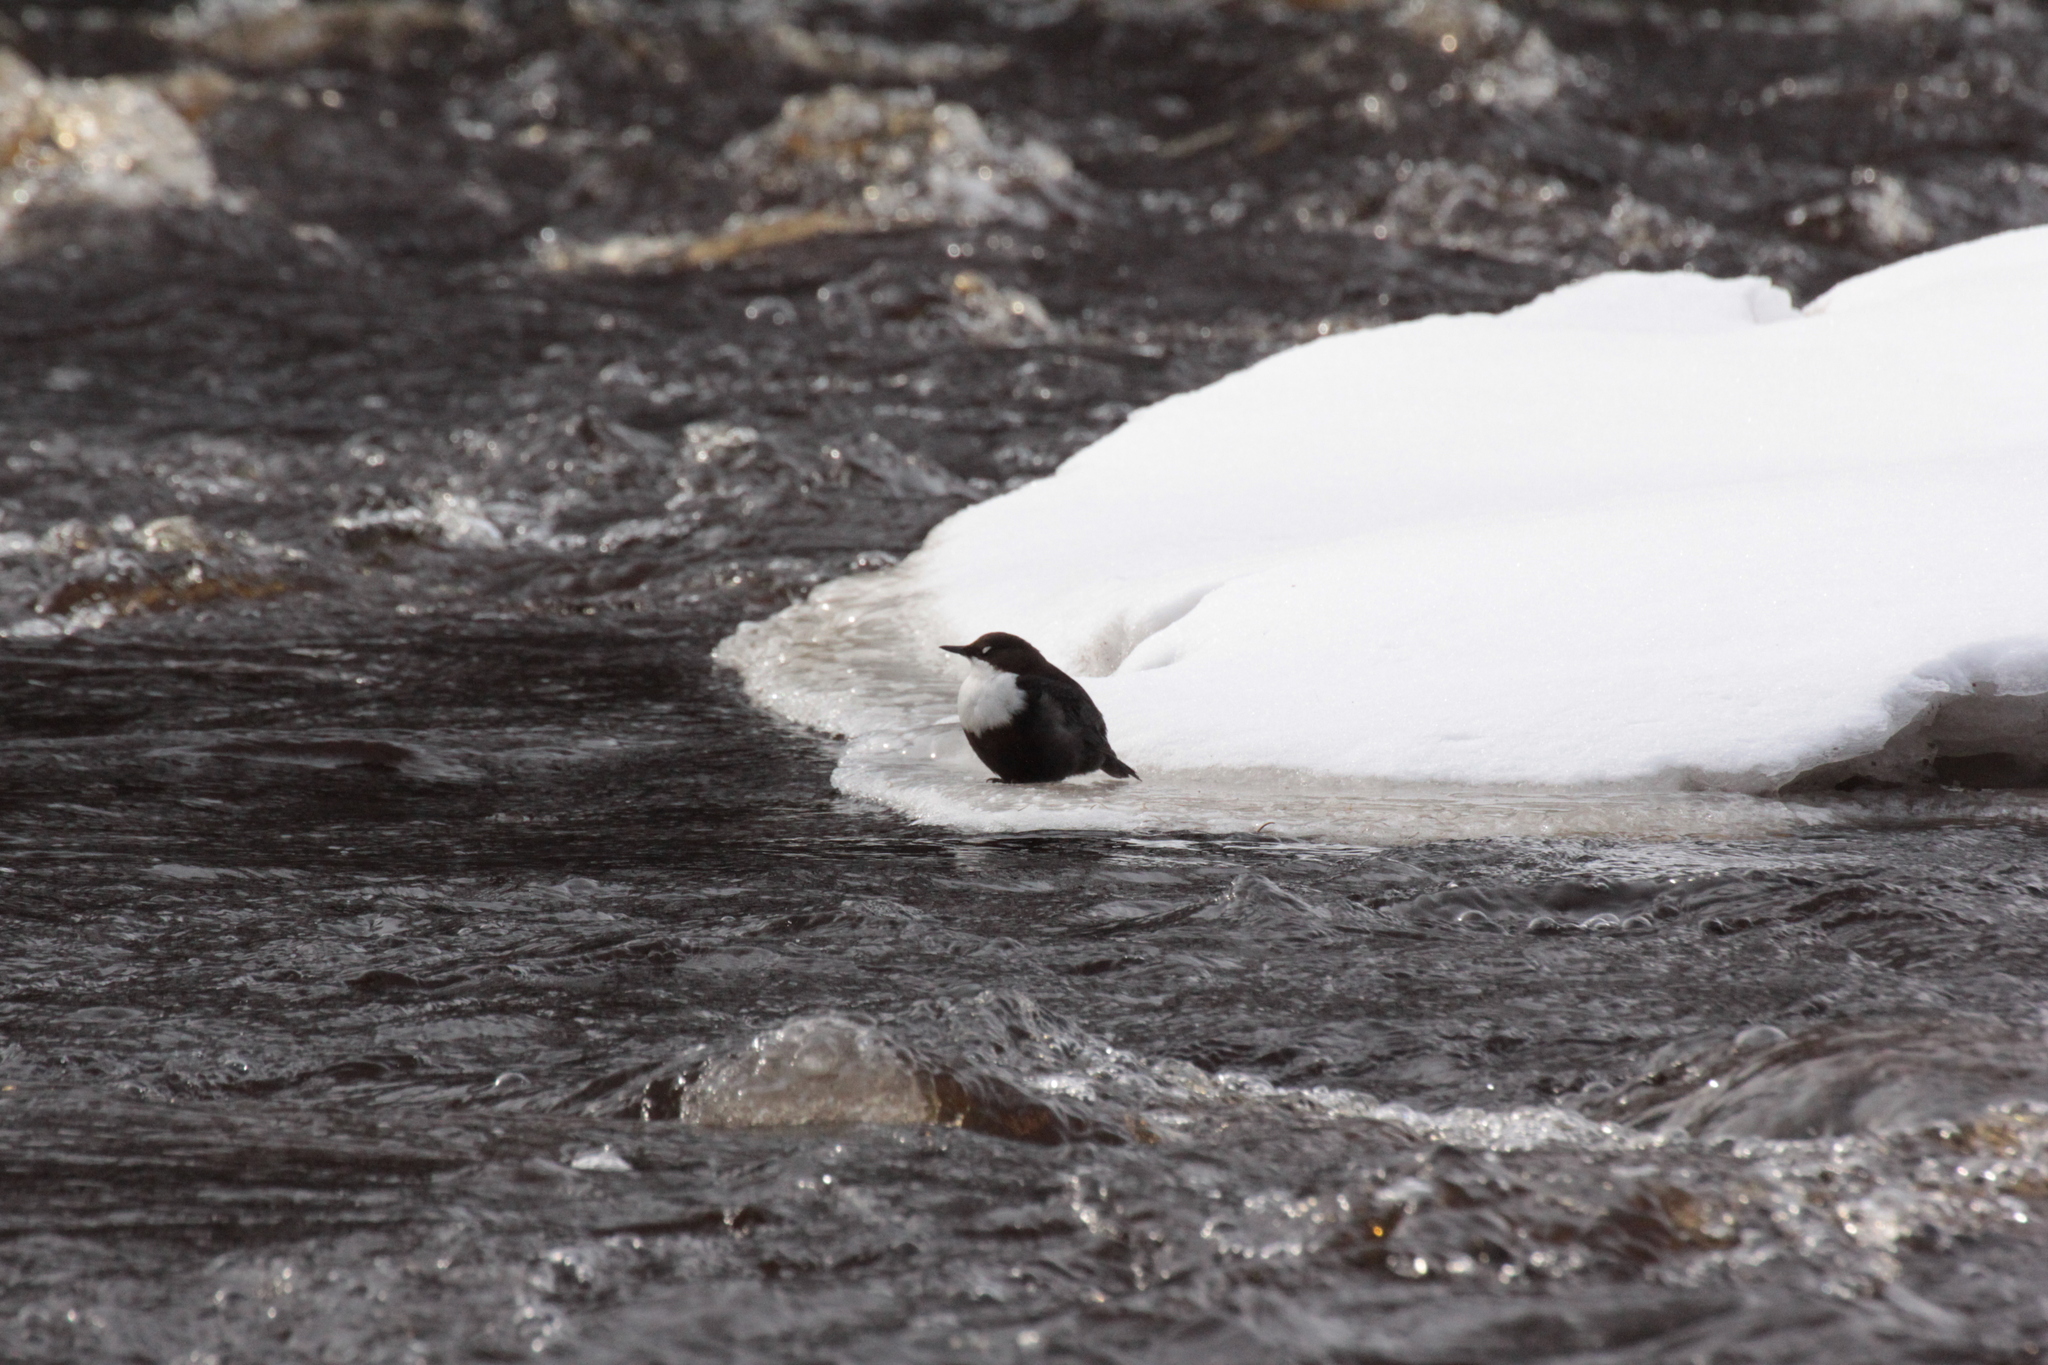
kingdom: Animalia
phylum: Chordata
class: Aves
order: Passeriformes
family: Cinclidae
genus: Cinclus
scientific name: Cinclus cinclus
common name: White-throated dipper
